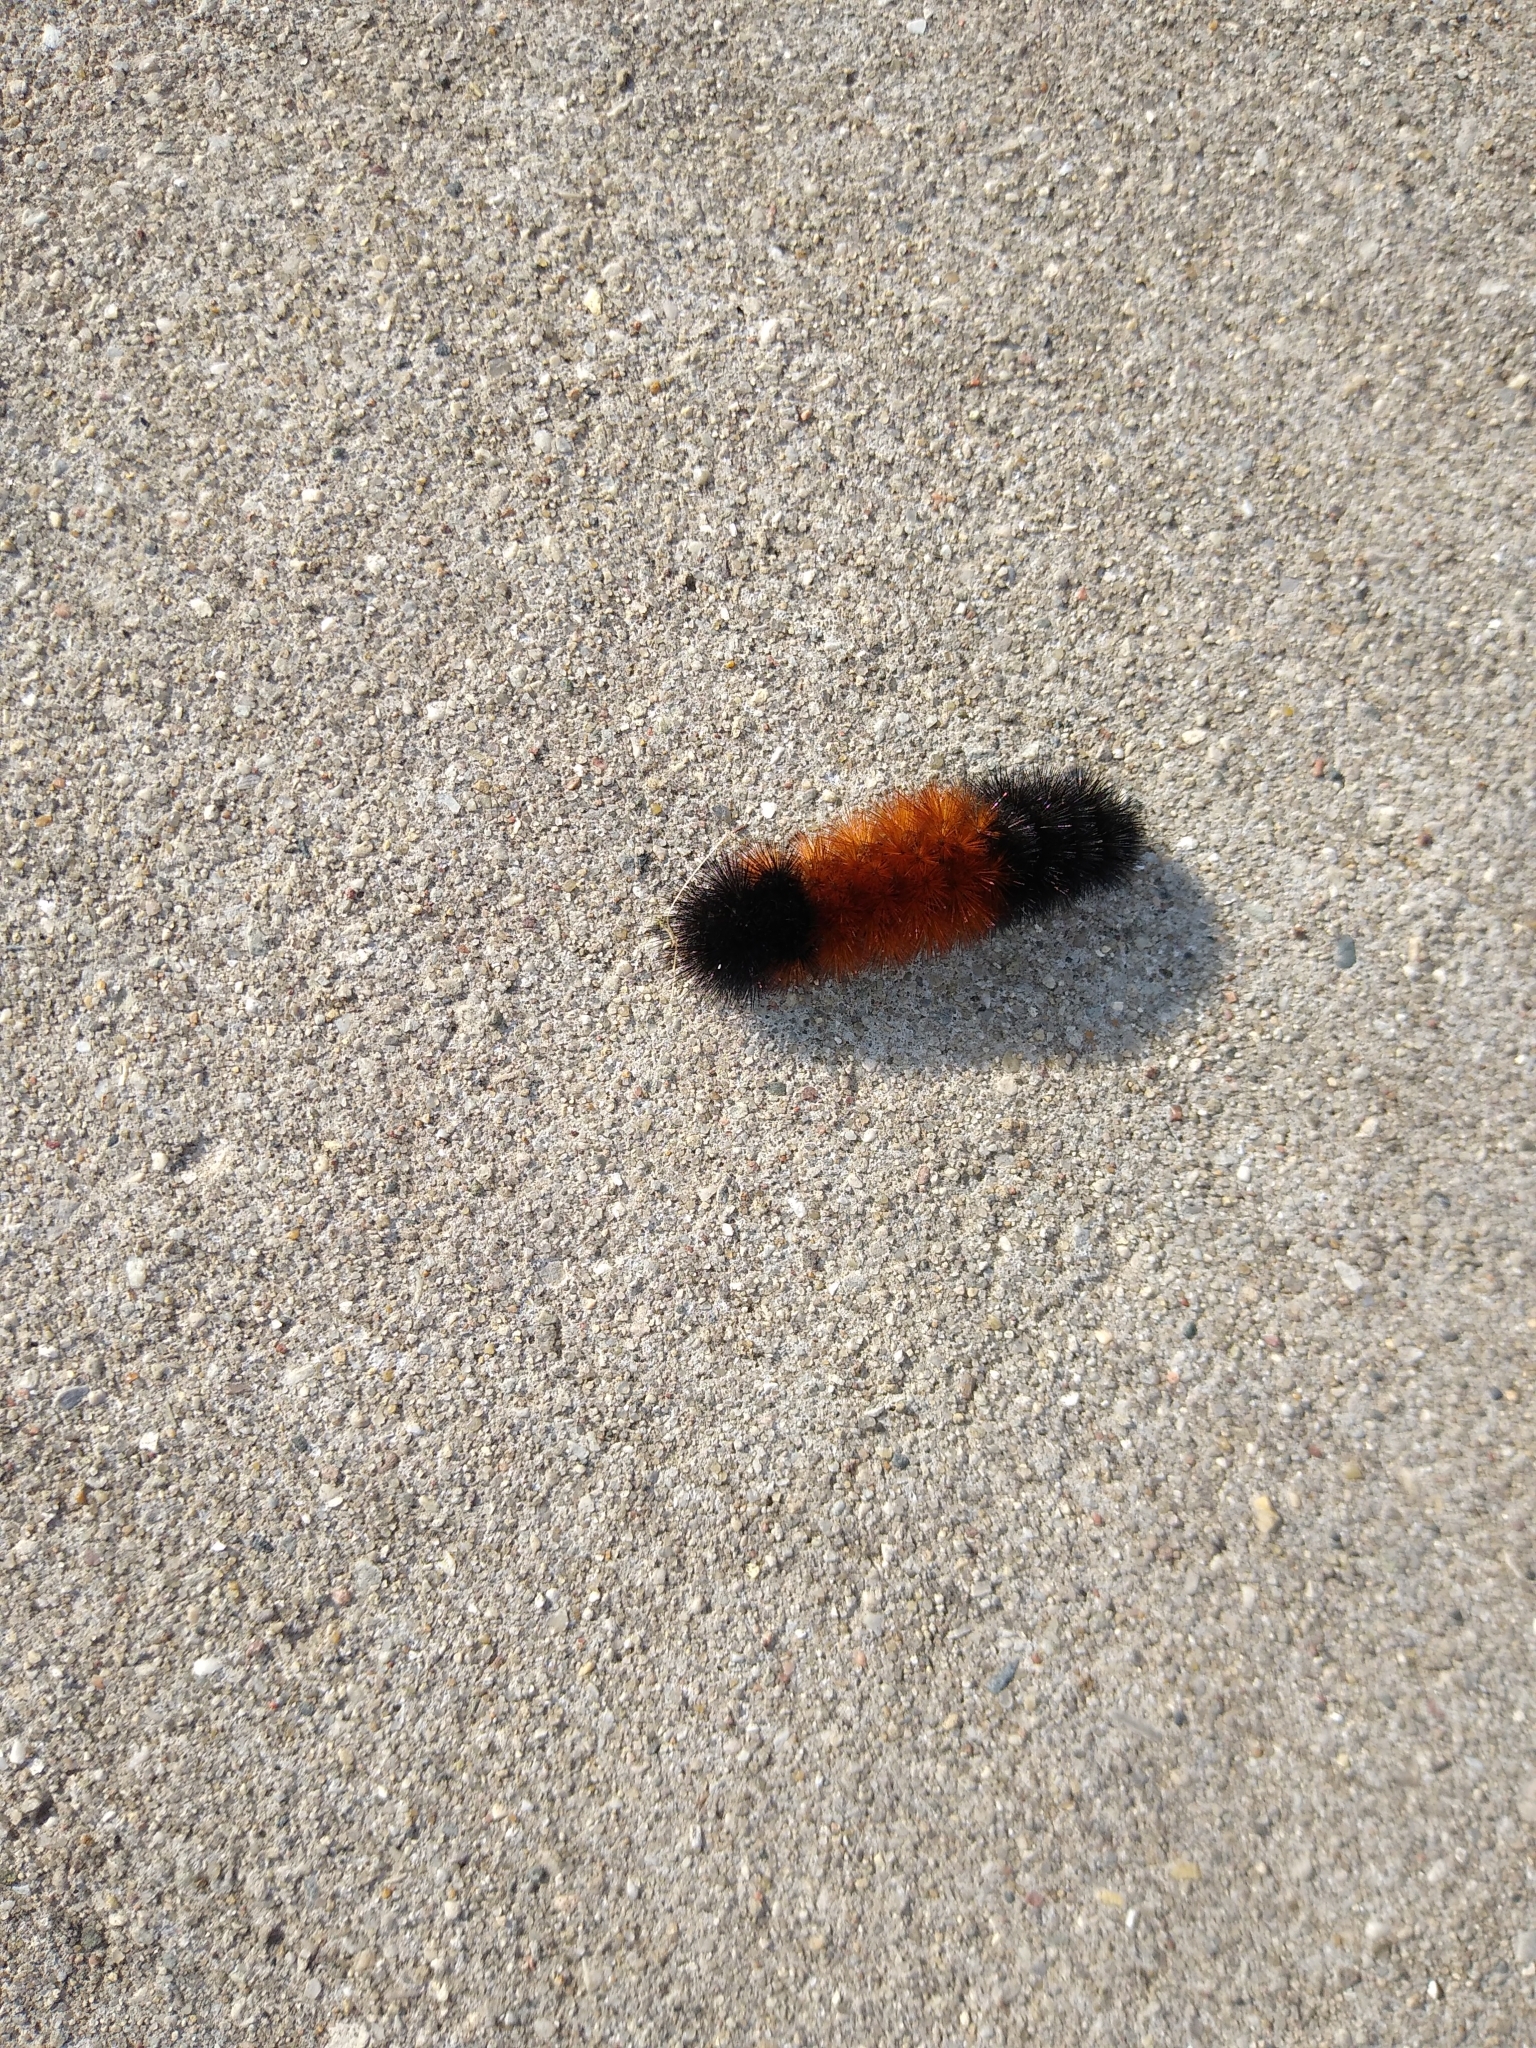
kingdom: Animalia
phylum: Arthropoda
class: Insecta
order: Lepidoptera
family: Erebidae
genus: Pyrrharctia
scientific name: Pyrrharctia isabella
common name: Isabella tiger moth
